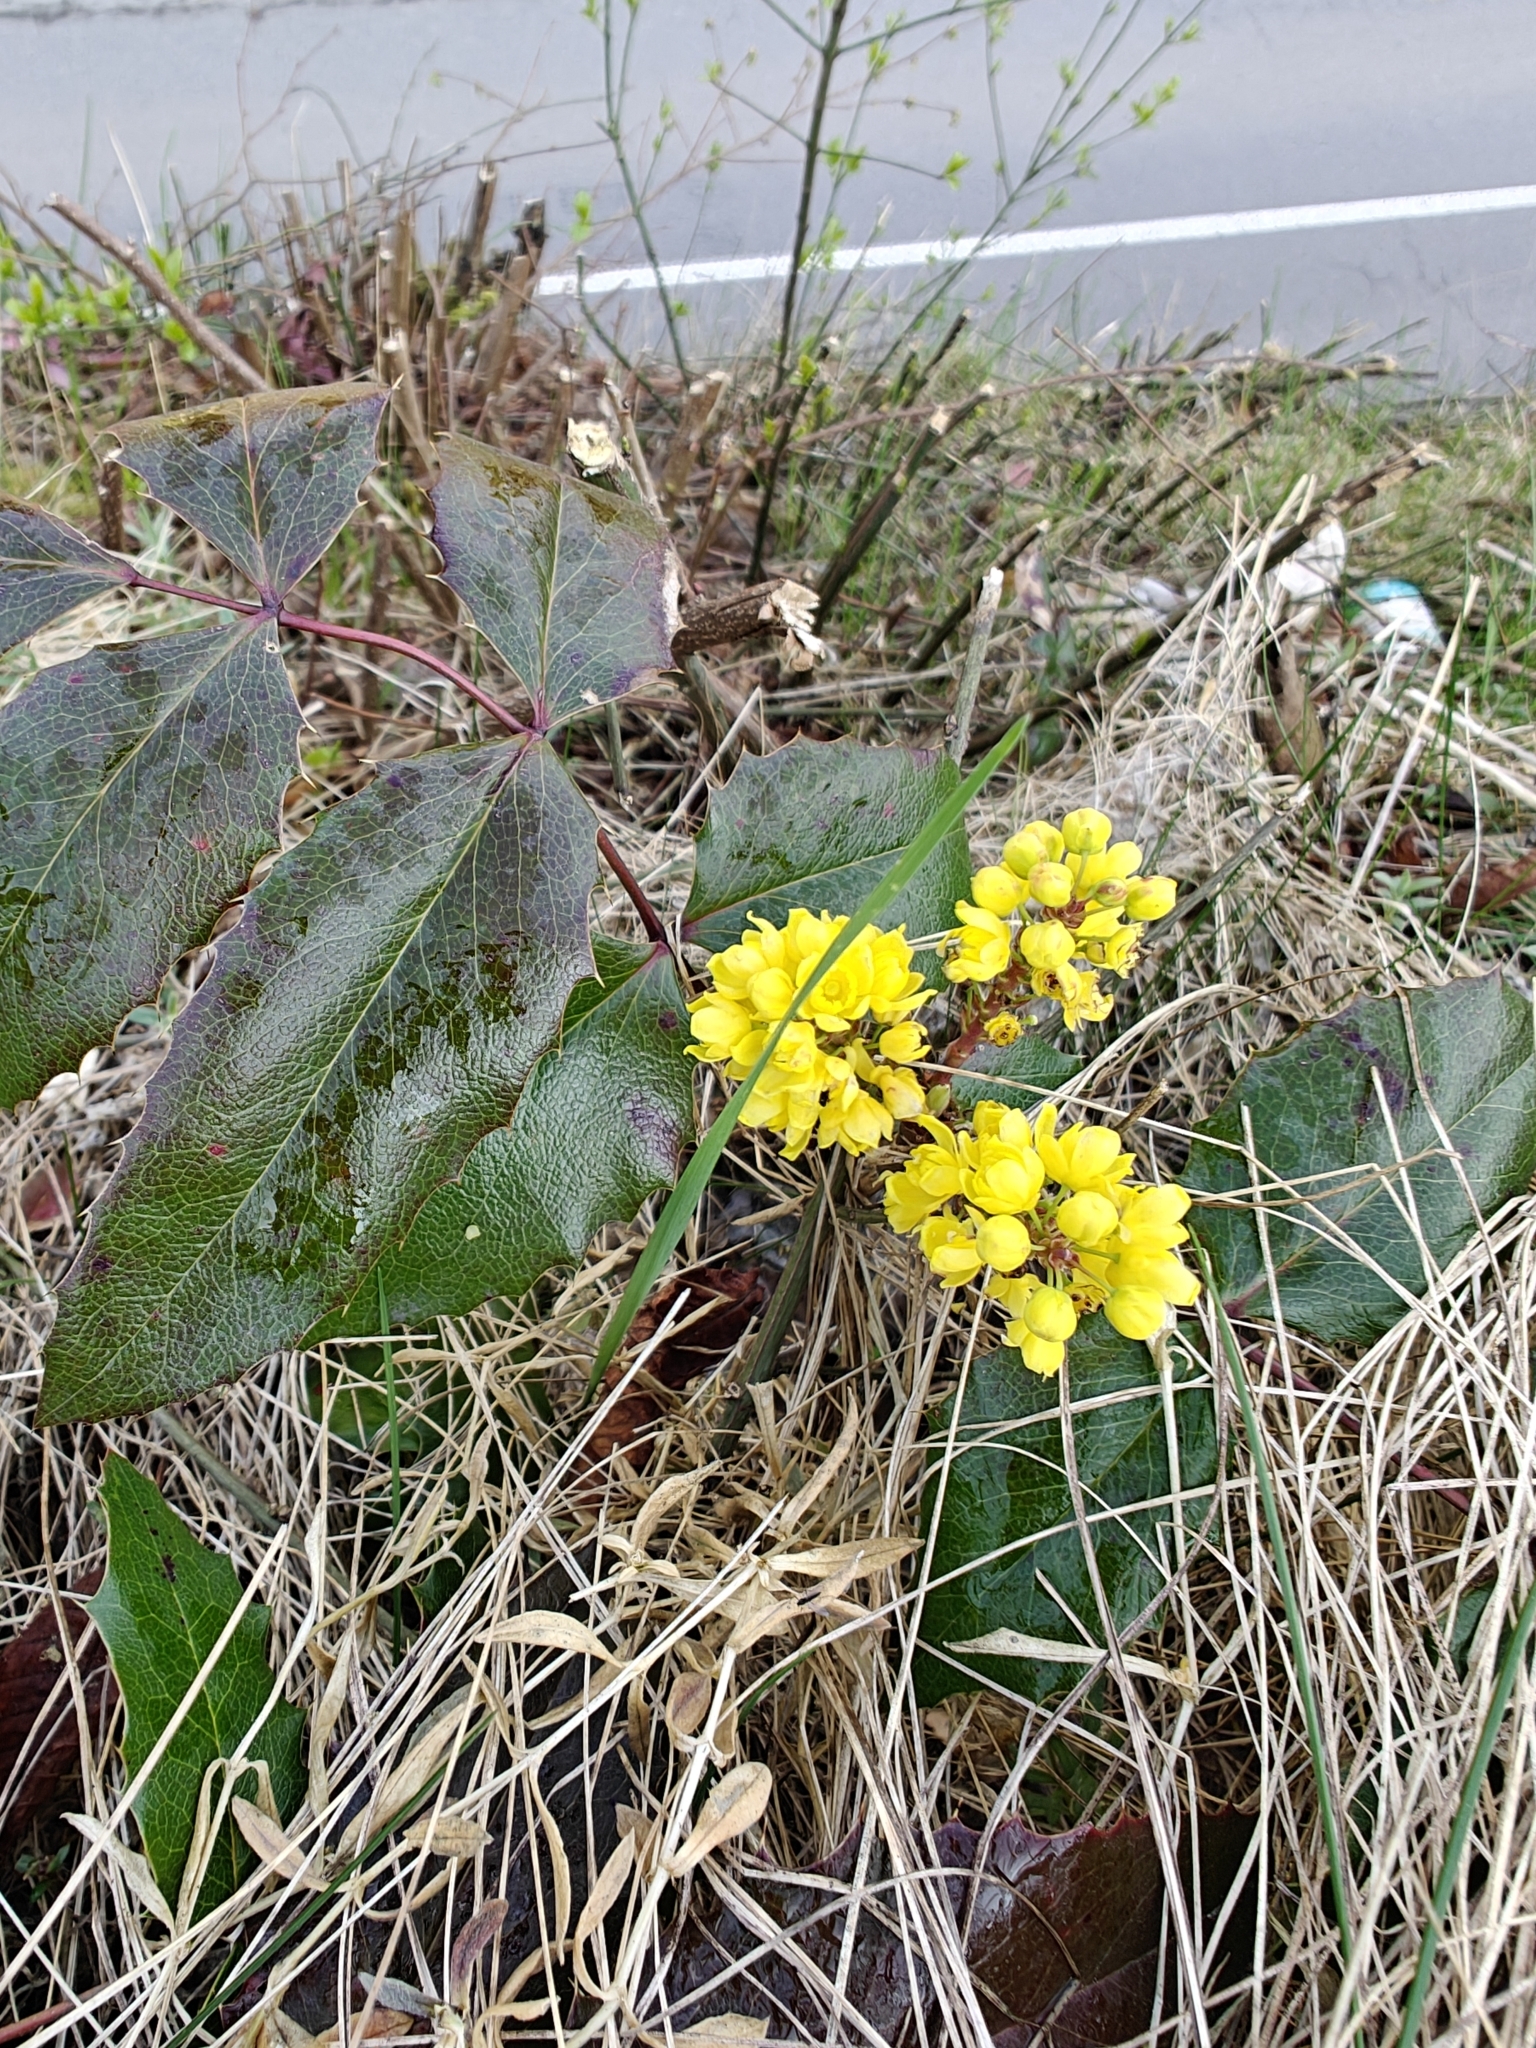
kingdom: Plantae
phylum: Tracheophyta
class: Magnoliopsida
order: Ranunculales
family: Berberidaceae
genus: Mahonia
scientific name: Mahonia aquifolium
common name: Oregon-grape
